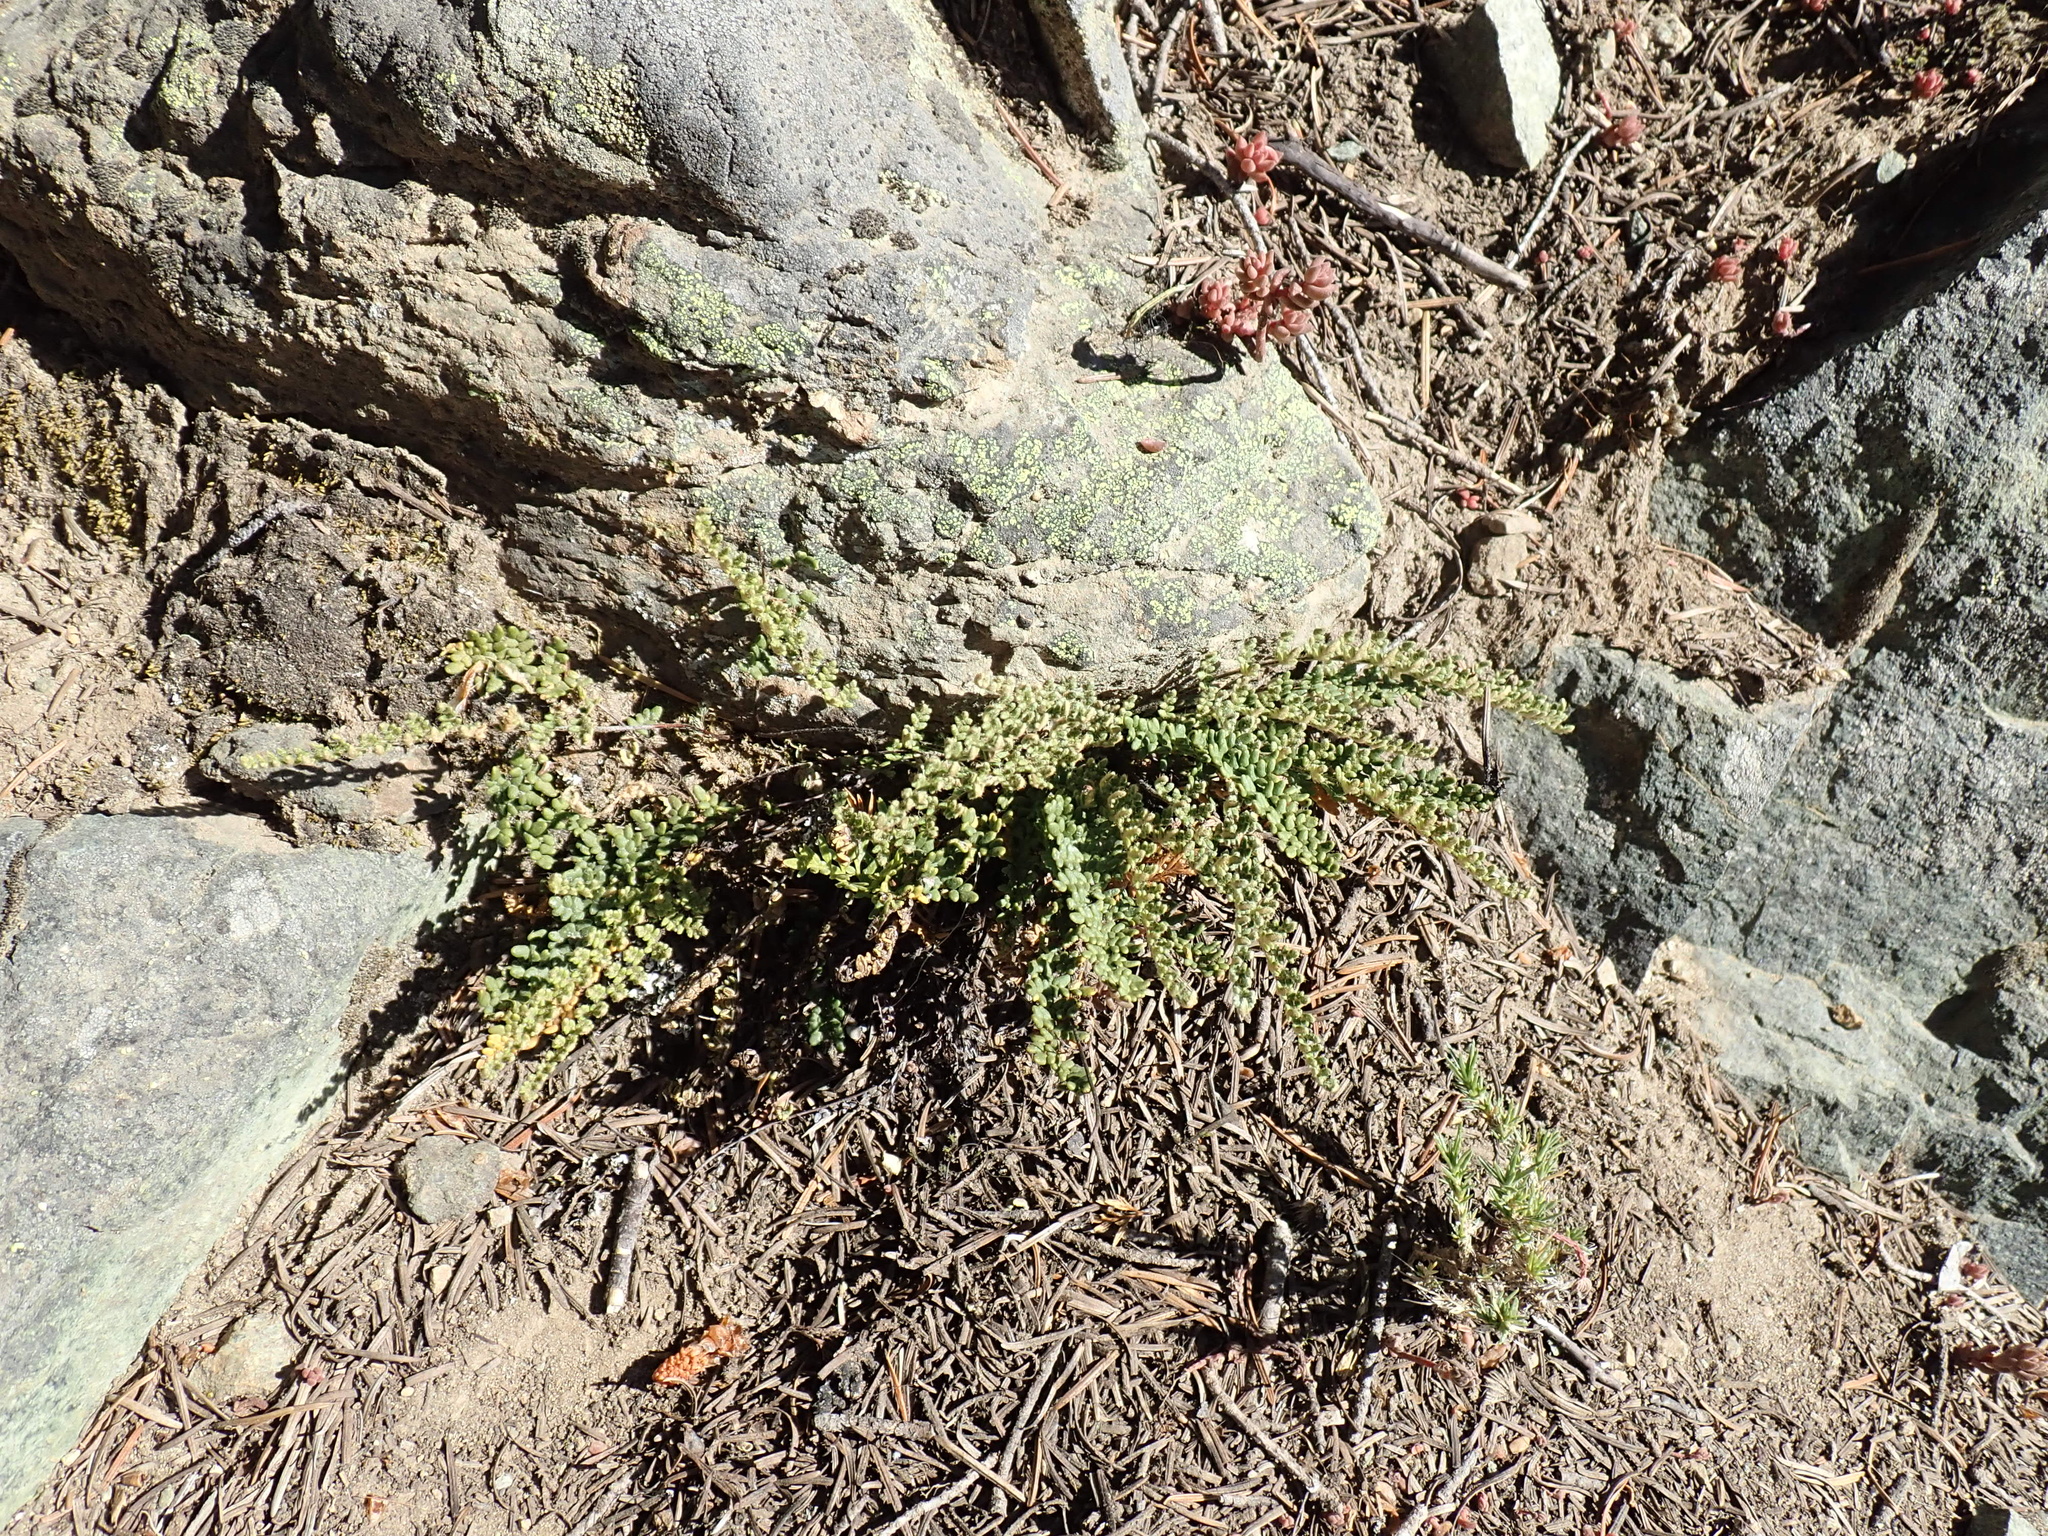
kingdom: Plantae
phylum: Tracheophyta
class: Polypodiopsida
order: Polypodiales
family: Pteridaceae
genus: Myriopteris
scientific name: Myriopteris gracillima
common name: Lace fern
